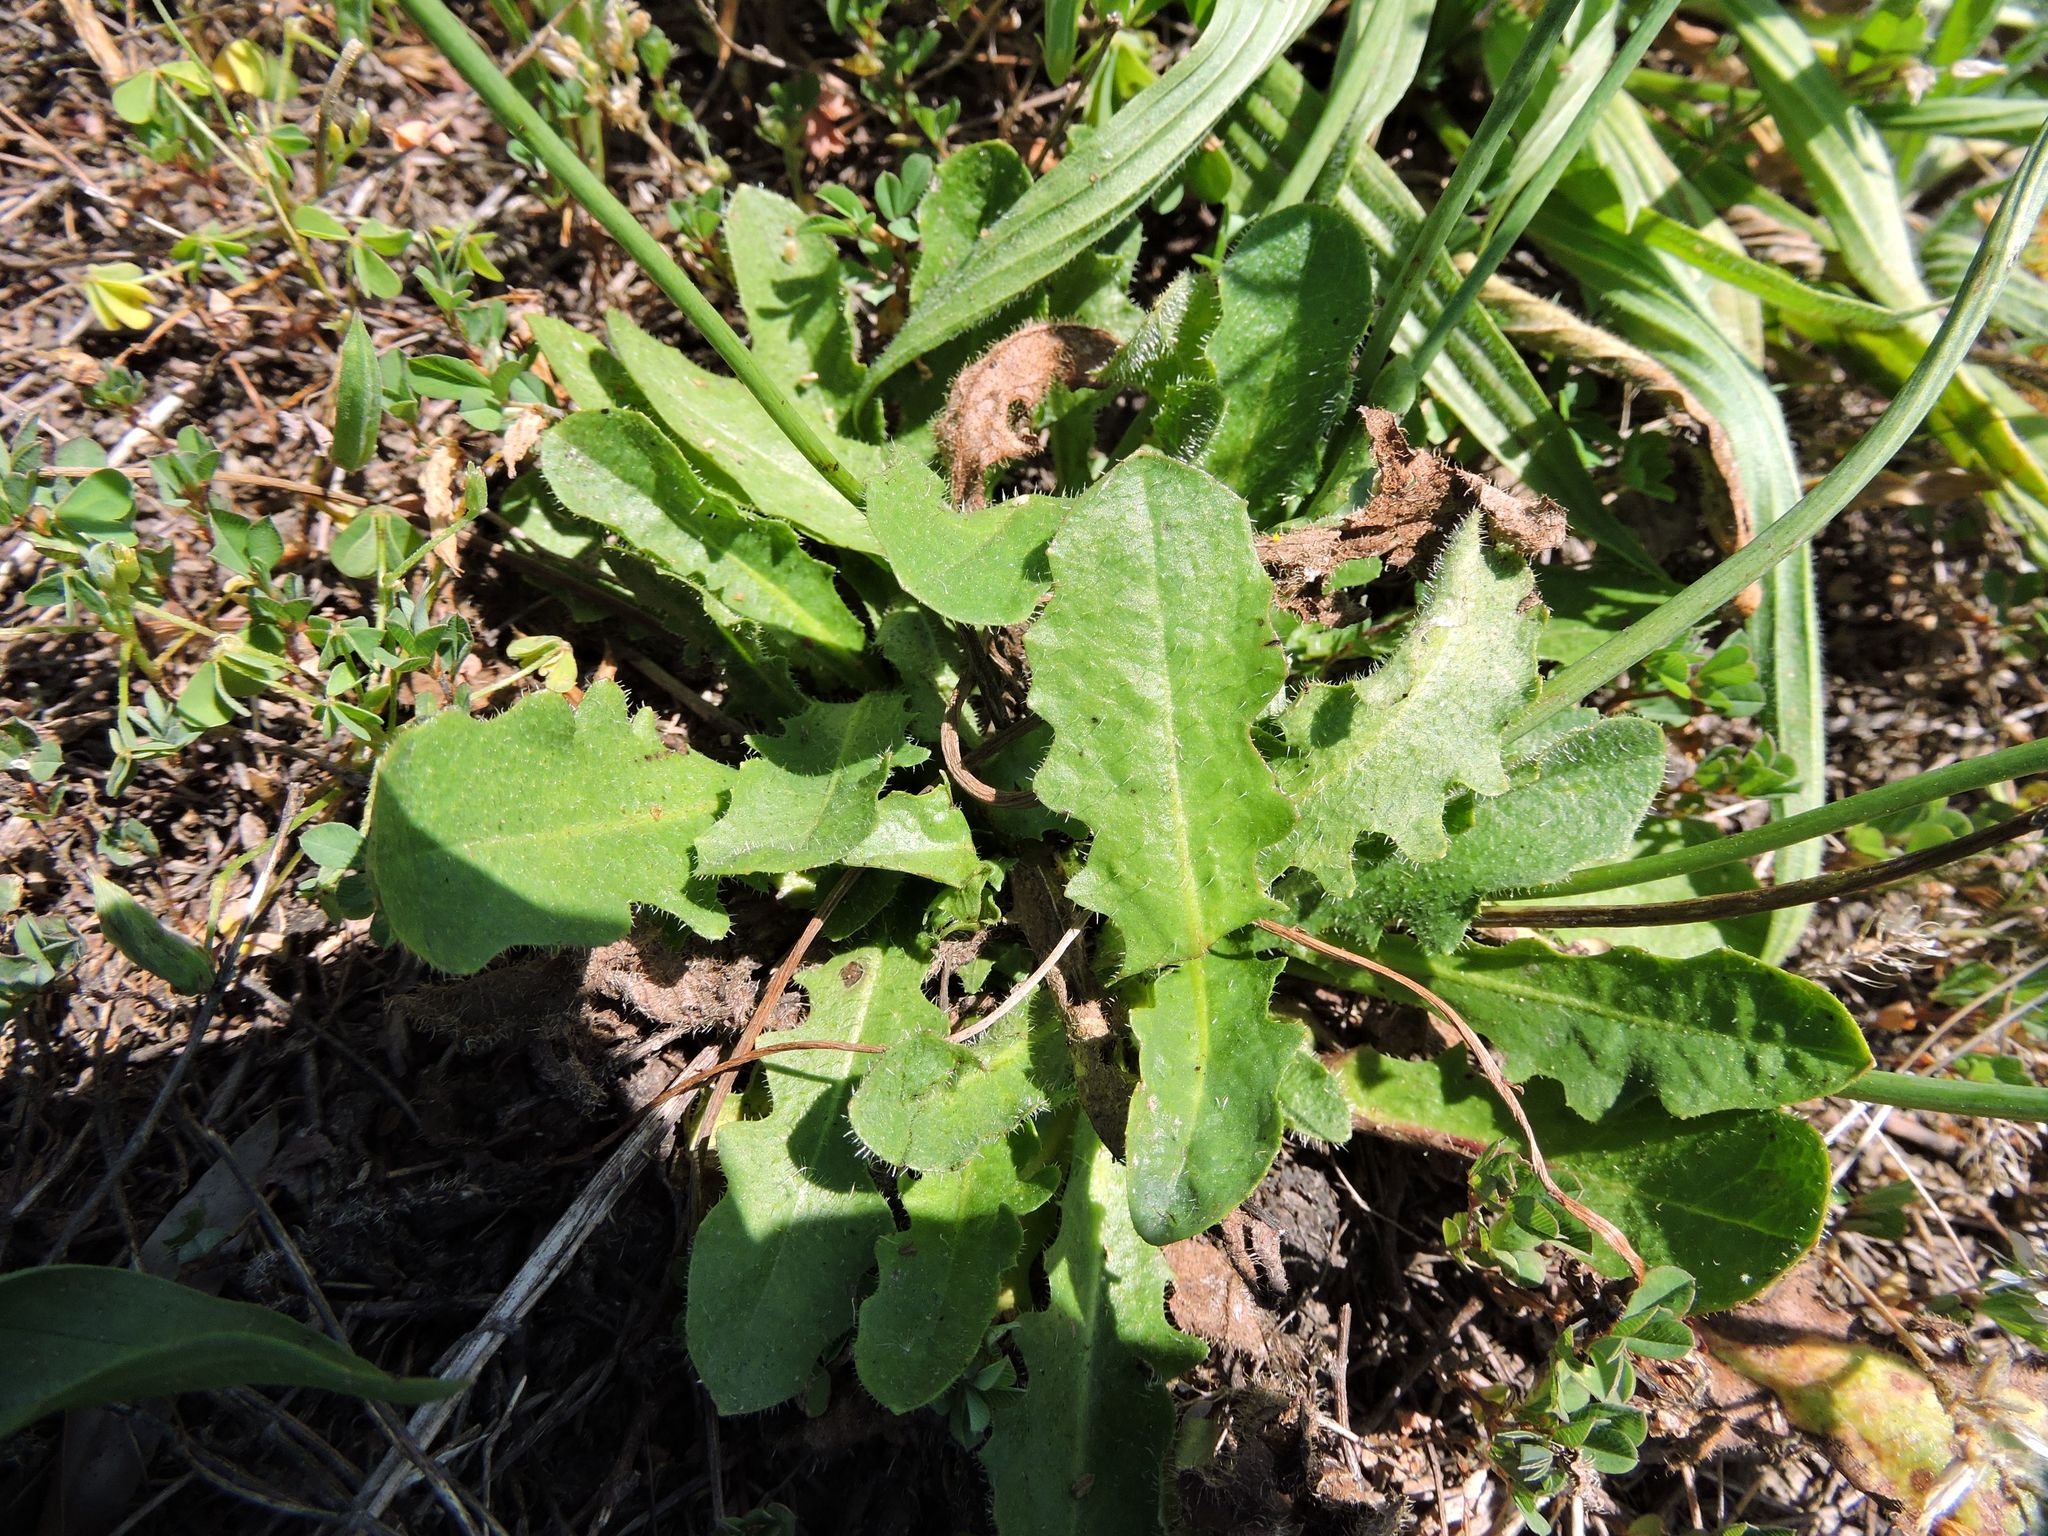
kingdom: Plantae
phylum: Tracheophyta
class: Magnoliopsida
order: Asterales
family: Asteraceae
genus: Hypochaeris
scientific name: Hypochaeris radicata
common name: Flatweed
